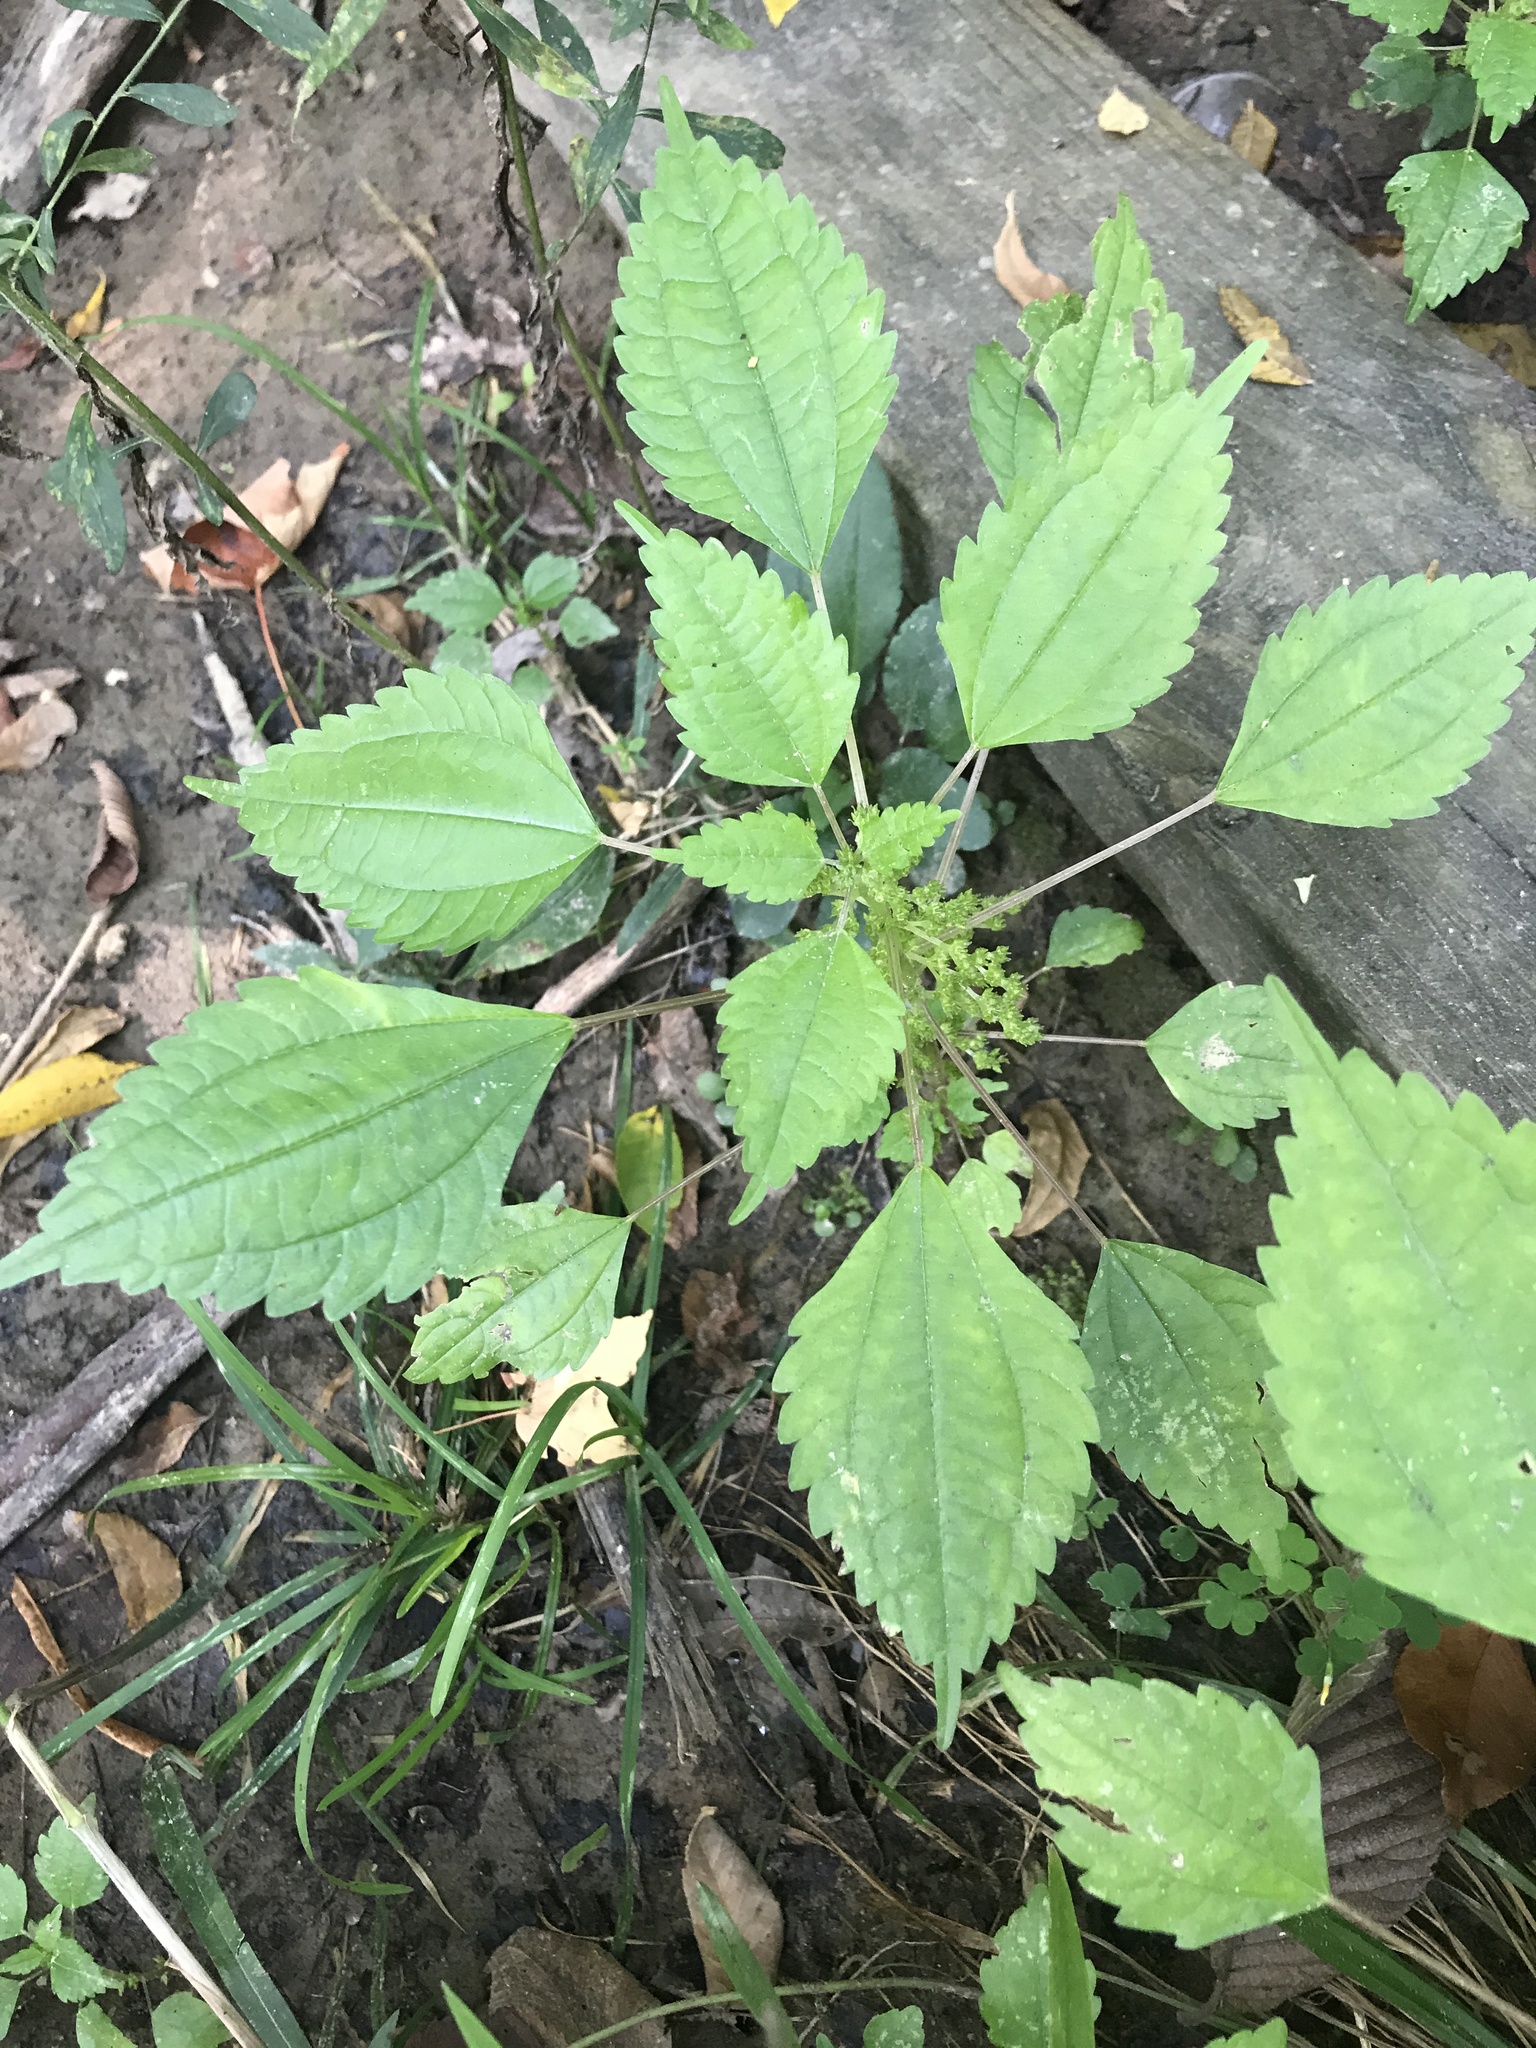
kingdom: Plantae
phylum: Tracheophyta
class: Magnoliopsida
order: Rosales
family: Urticaceae
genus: Pilea
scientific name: Pilea pumila
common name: Clearweed
